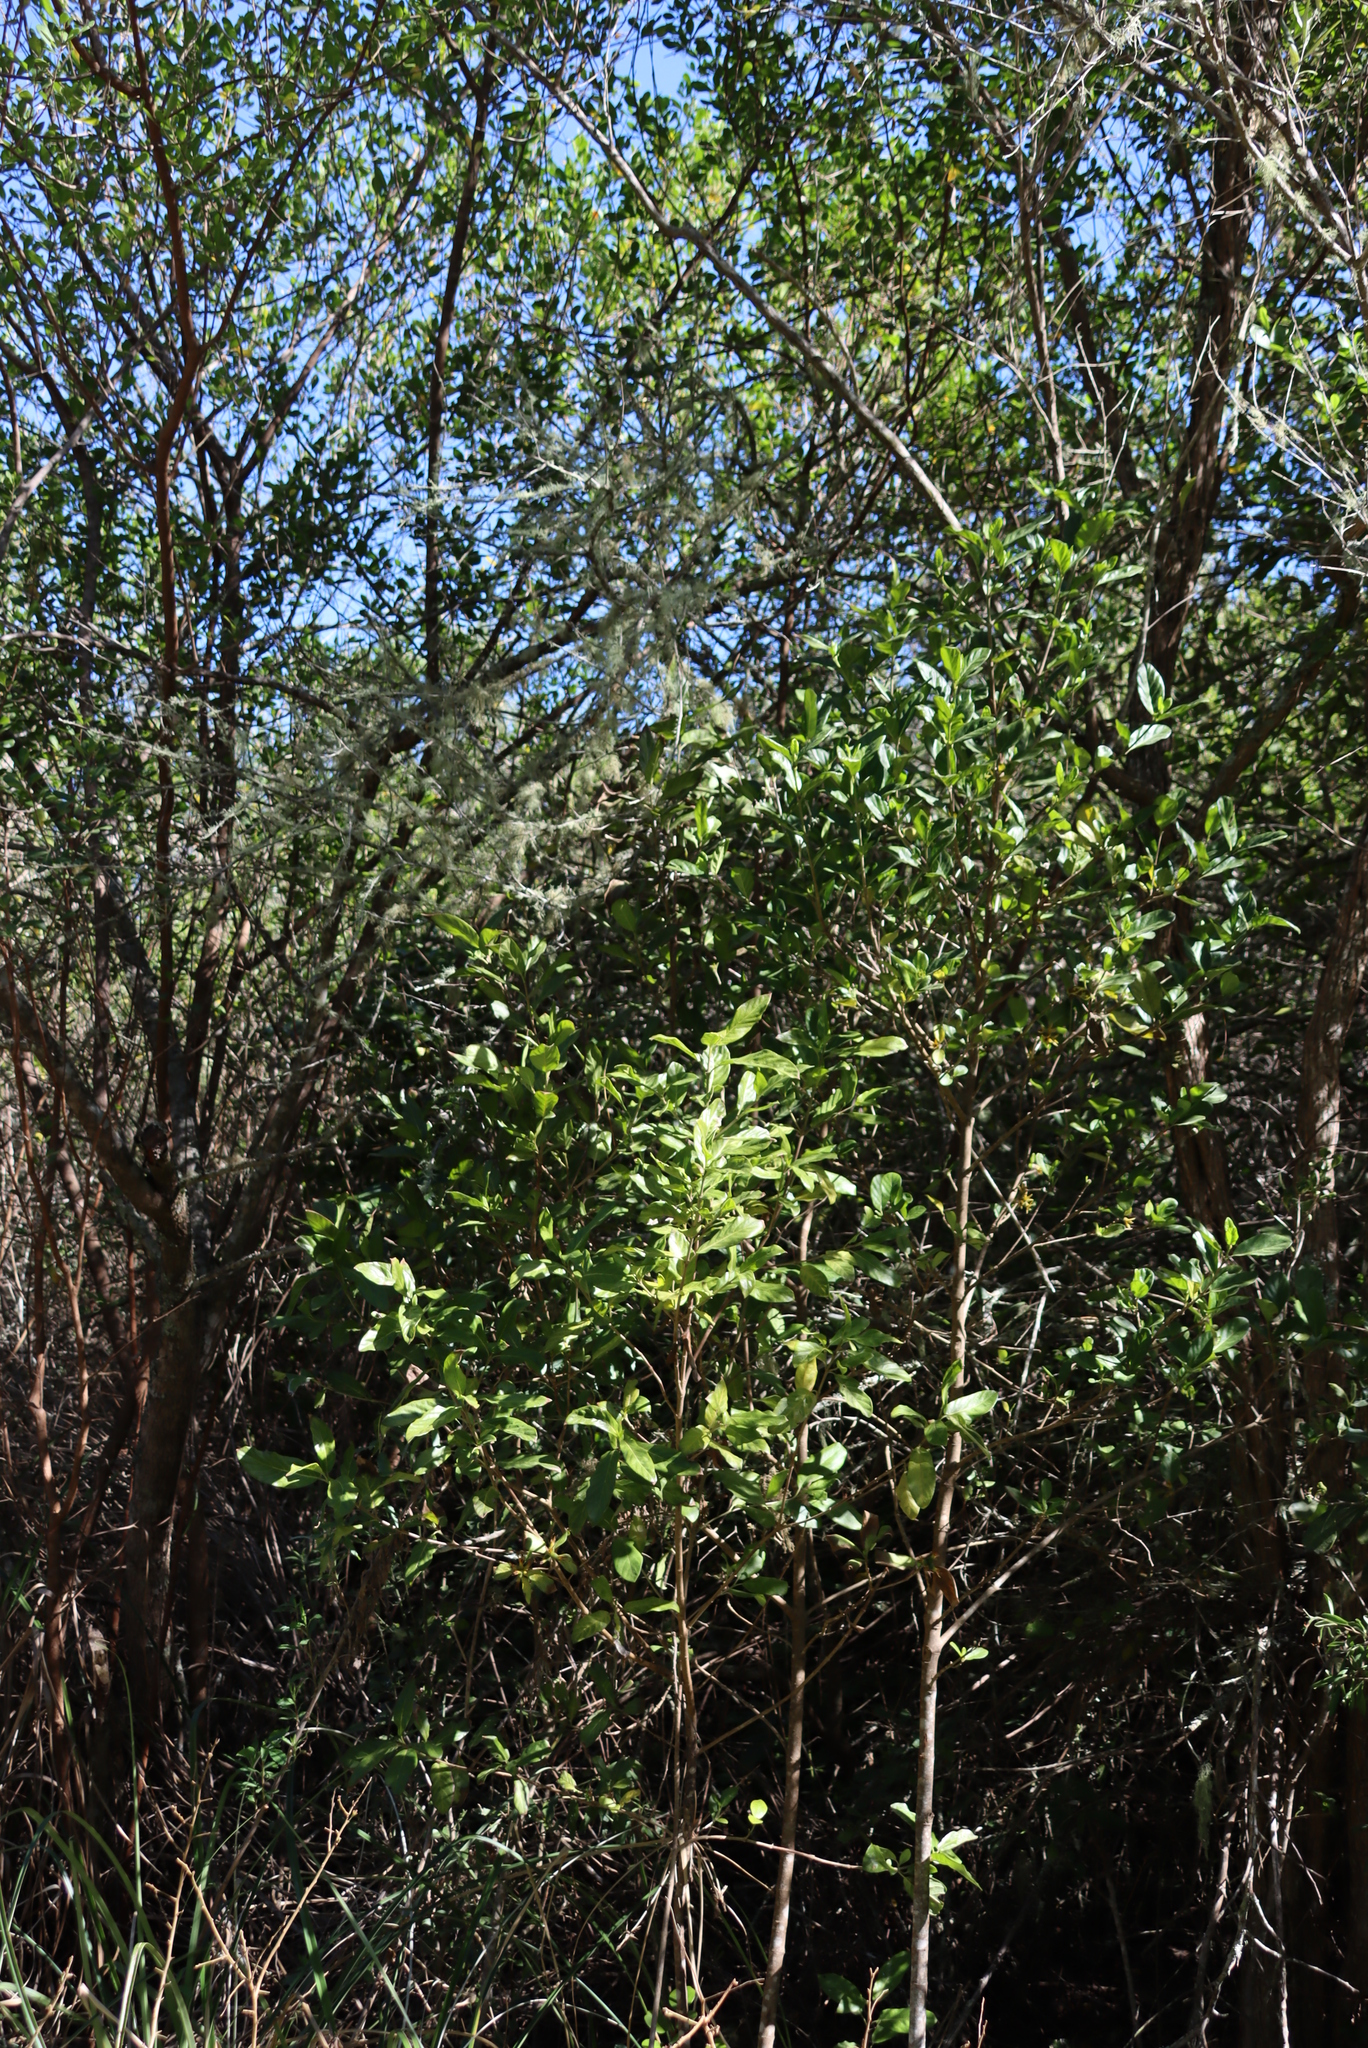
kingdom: Plantae
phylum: Tracheophyta
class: Magnoliopsida
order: Gentianales
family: Rubiaceae
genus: Burchellia
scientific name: Burchellia bubalina
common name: Wild pomegranate
